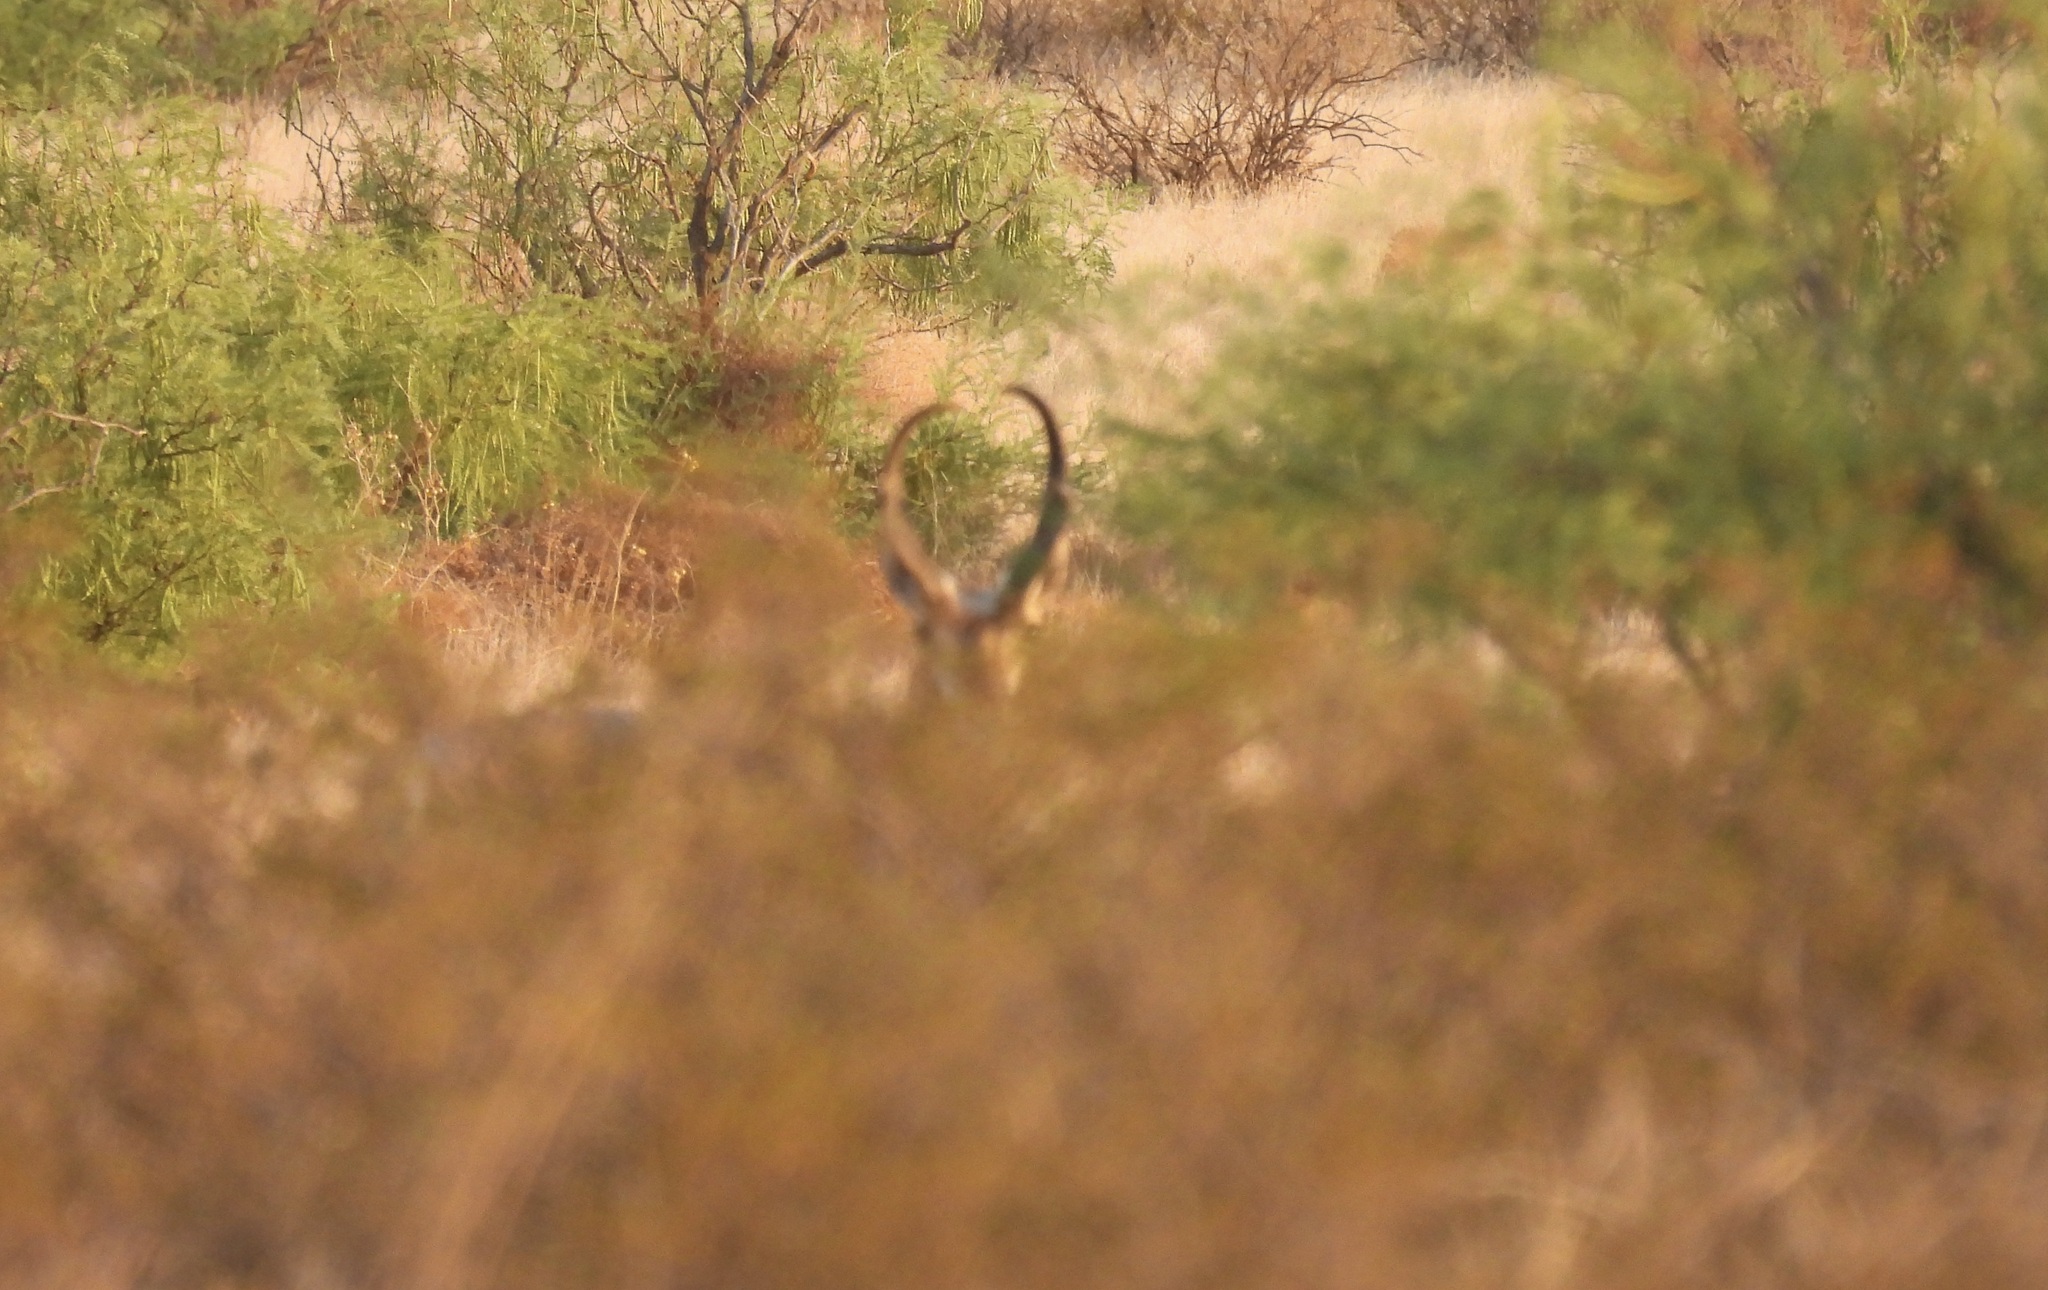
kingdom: Animalia
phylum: Chordata
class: Mammalia
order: Artiodactyla
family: Antilocapridae
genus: Antilocapra
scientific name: Antilocapra americana
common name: Pronghorn
